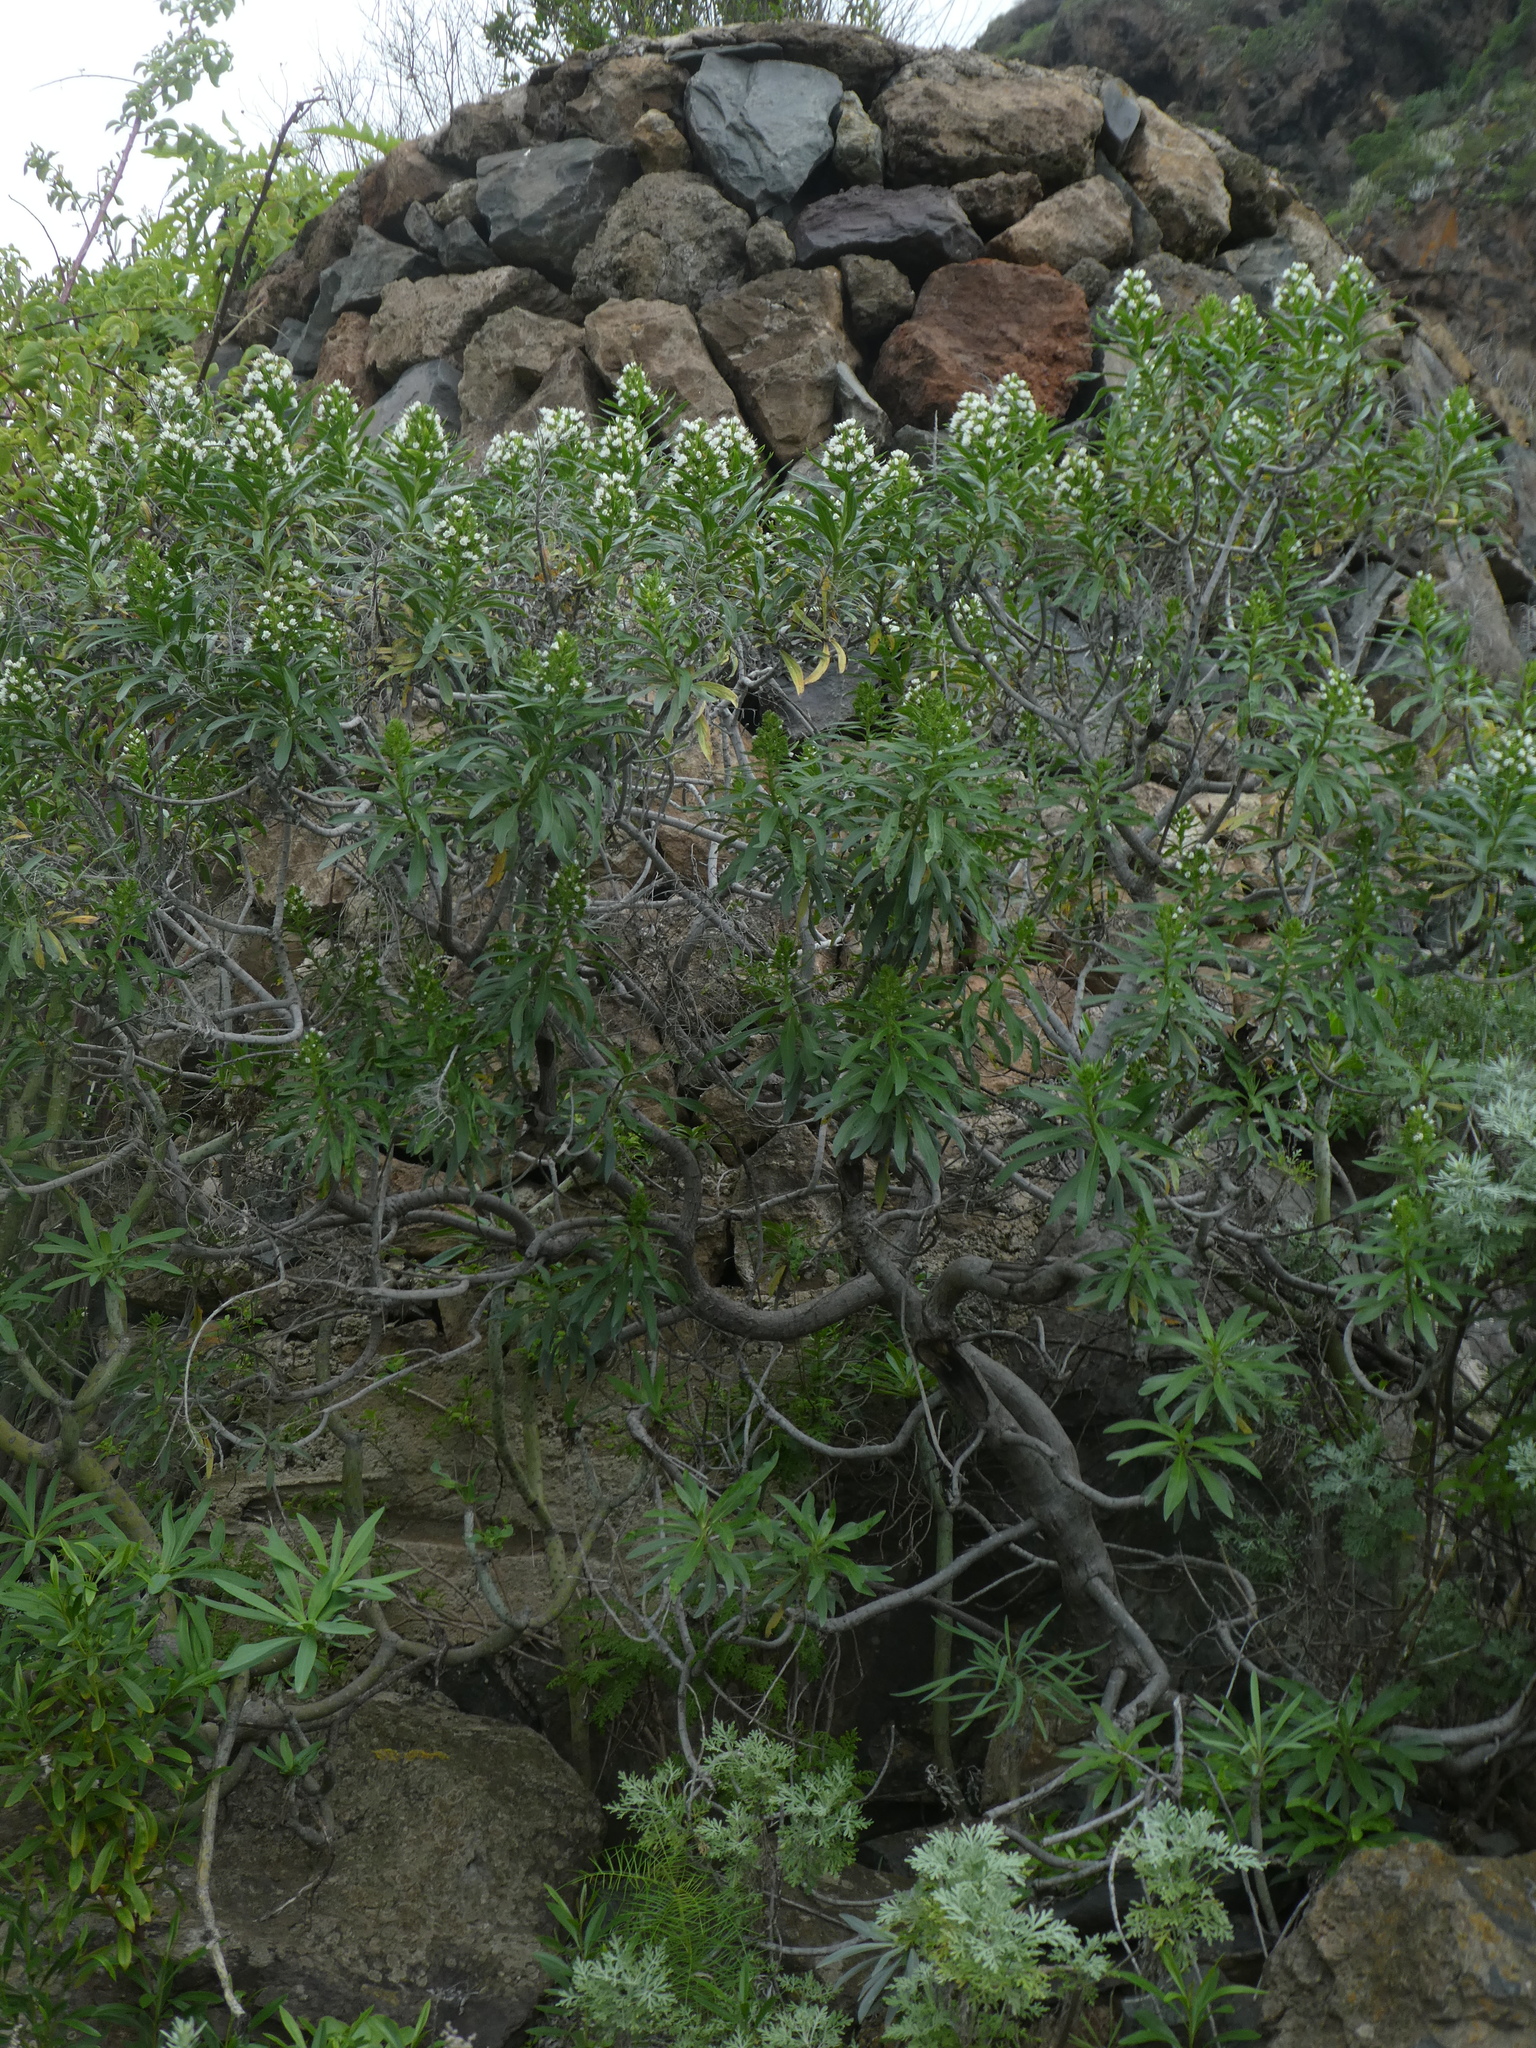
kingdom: Plantae
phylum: Tracheophyta
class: Magnoliopsida
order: Boraginales
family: Boraginaceae
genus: Echium
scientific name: Echium giganteum
